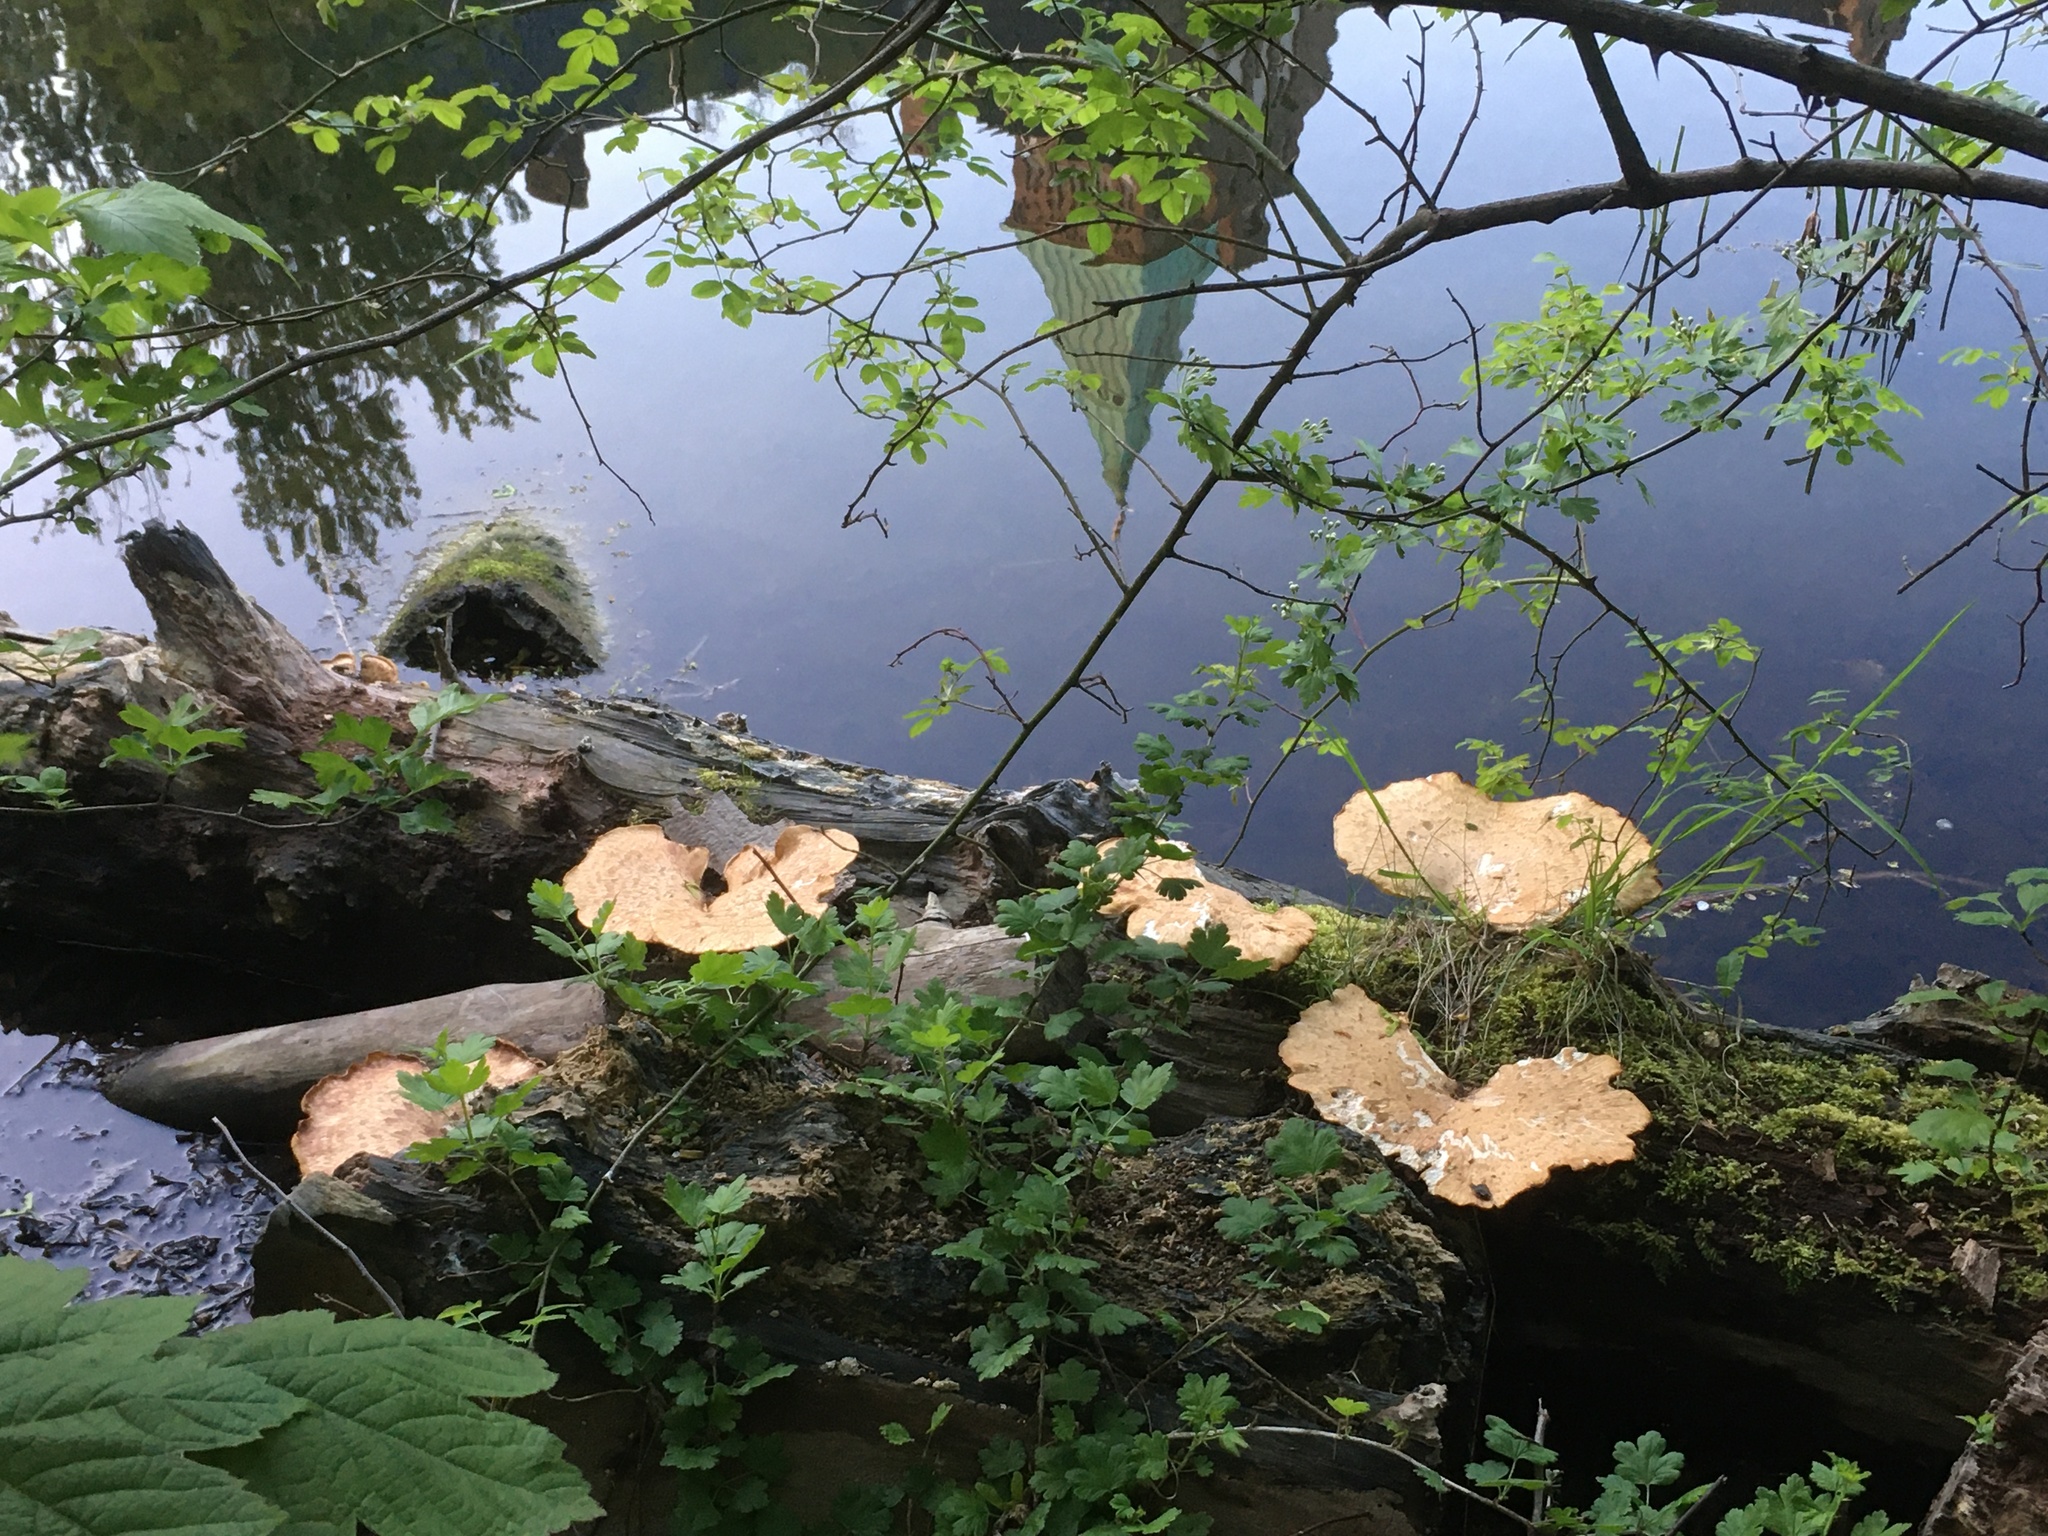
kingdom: Fungi
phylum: Basidiomycota
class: Agaricomycetes
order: Polyporales
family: Polyporaceae
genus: Cerioporus
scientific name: Cerioporus squamosus
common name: Dryad's saddle
